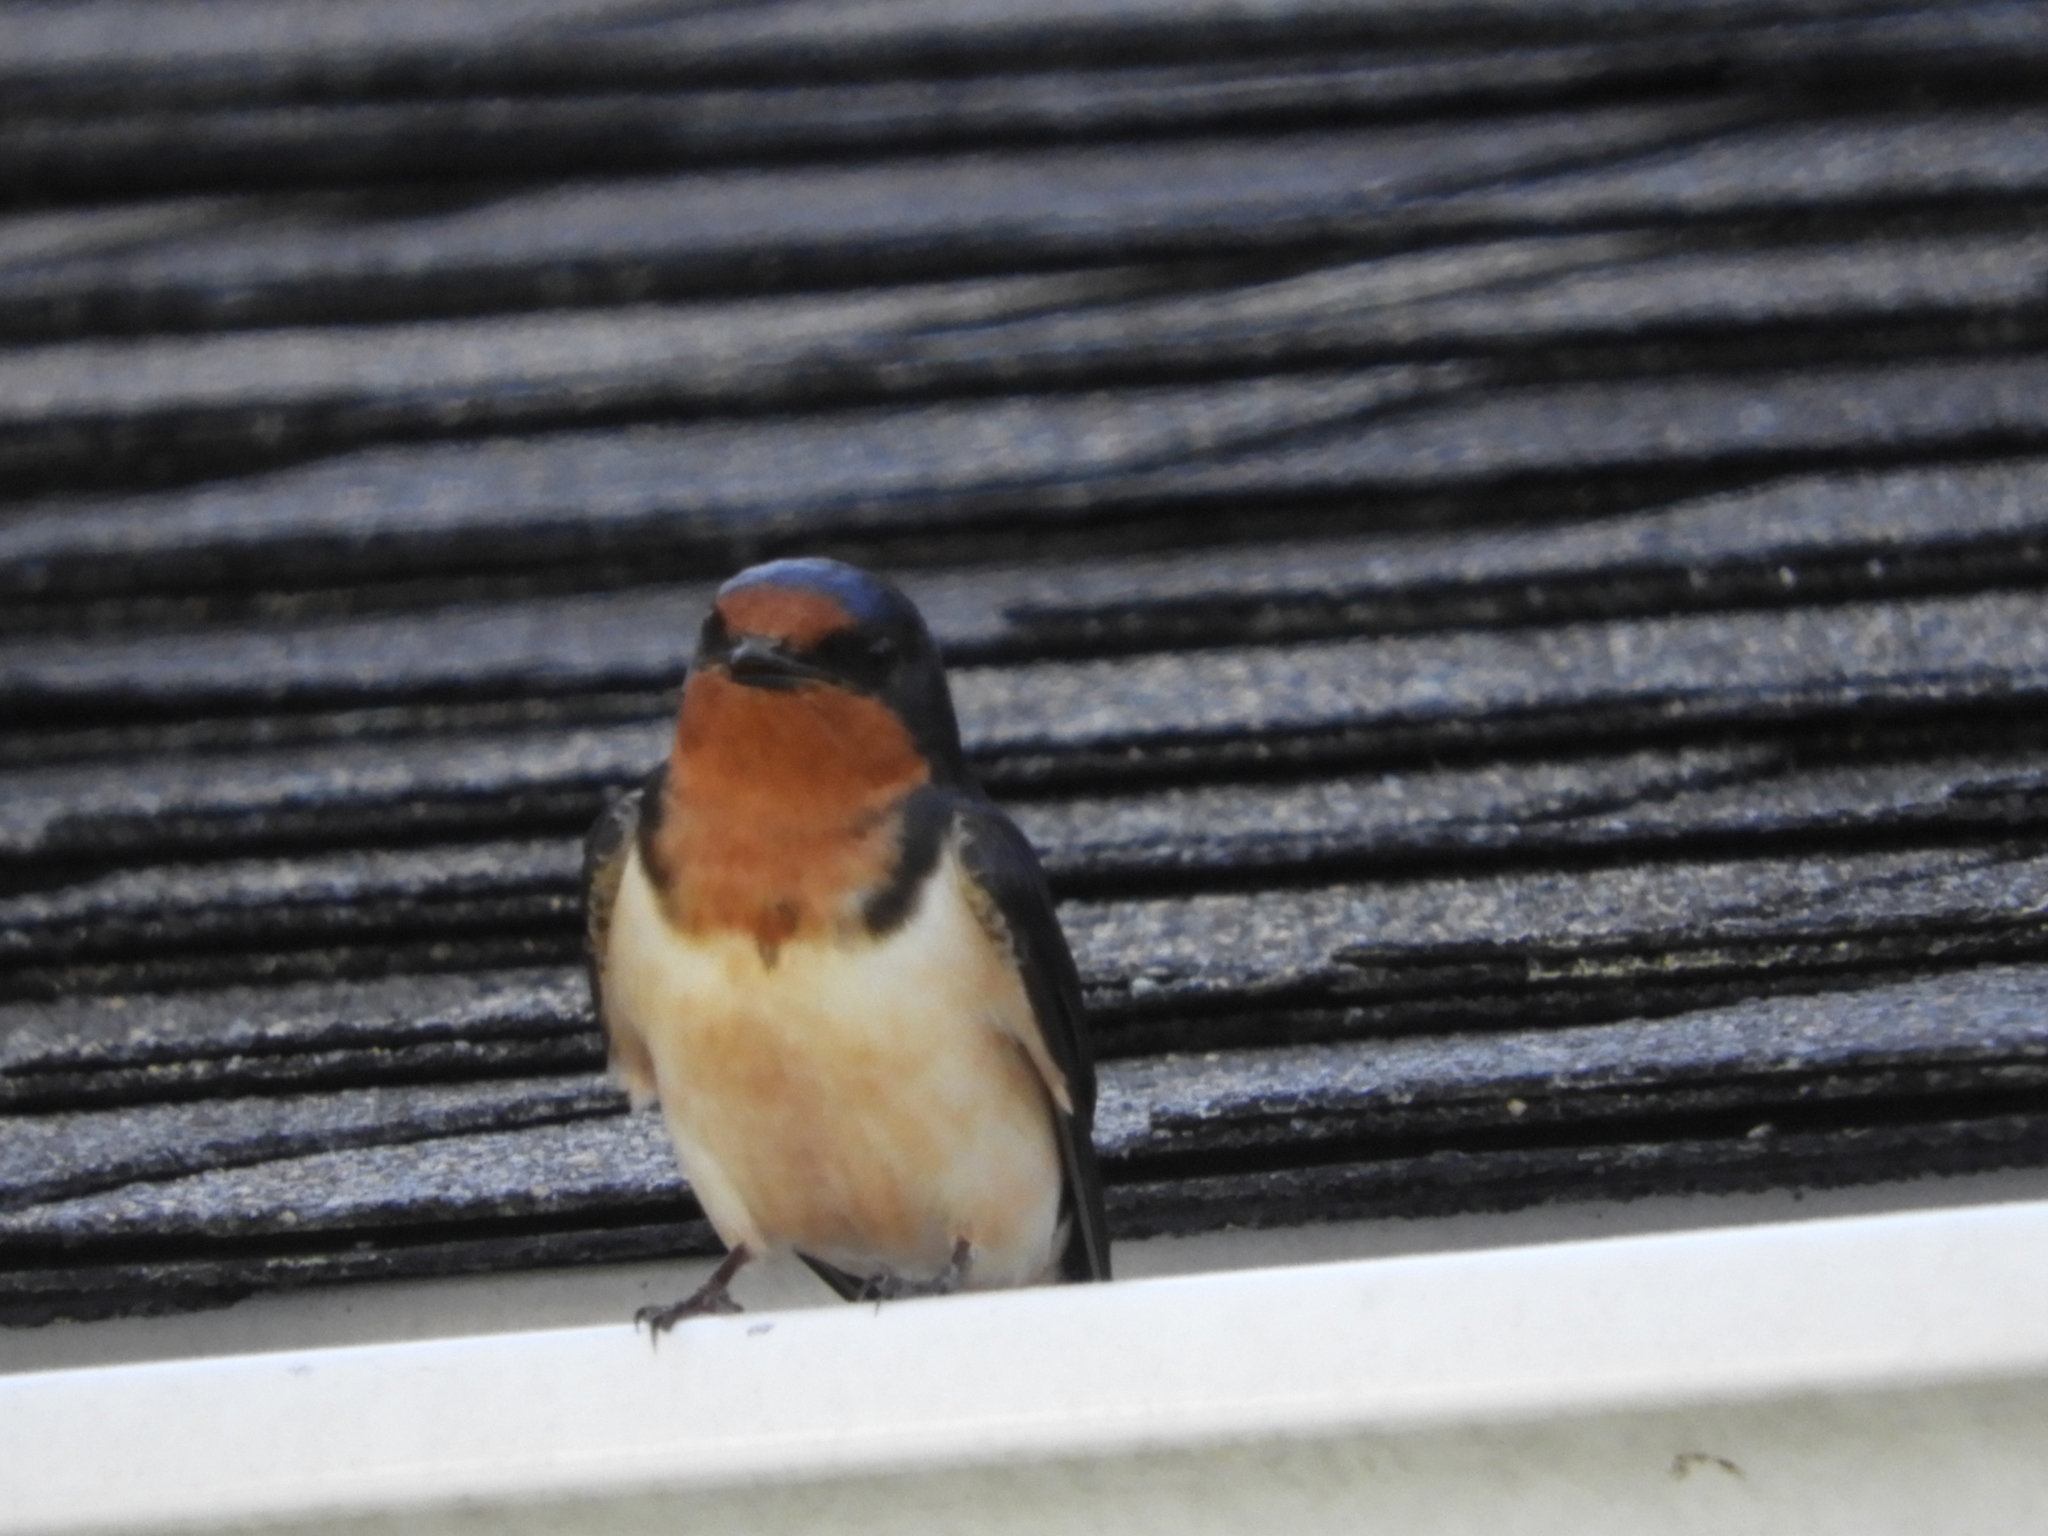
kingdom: Animalia
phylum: Chordata
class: Aves
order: Passeriformes
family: Hirundinidae
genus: Hirundo
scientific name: Hirundo rustica
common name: Barn swallow
